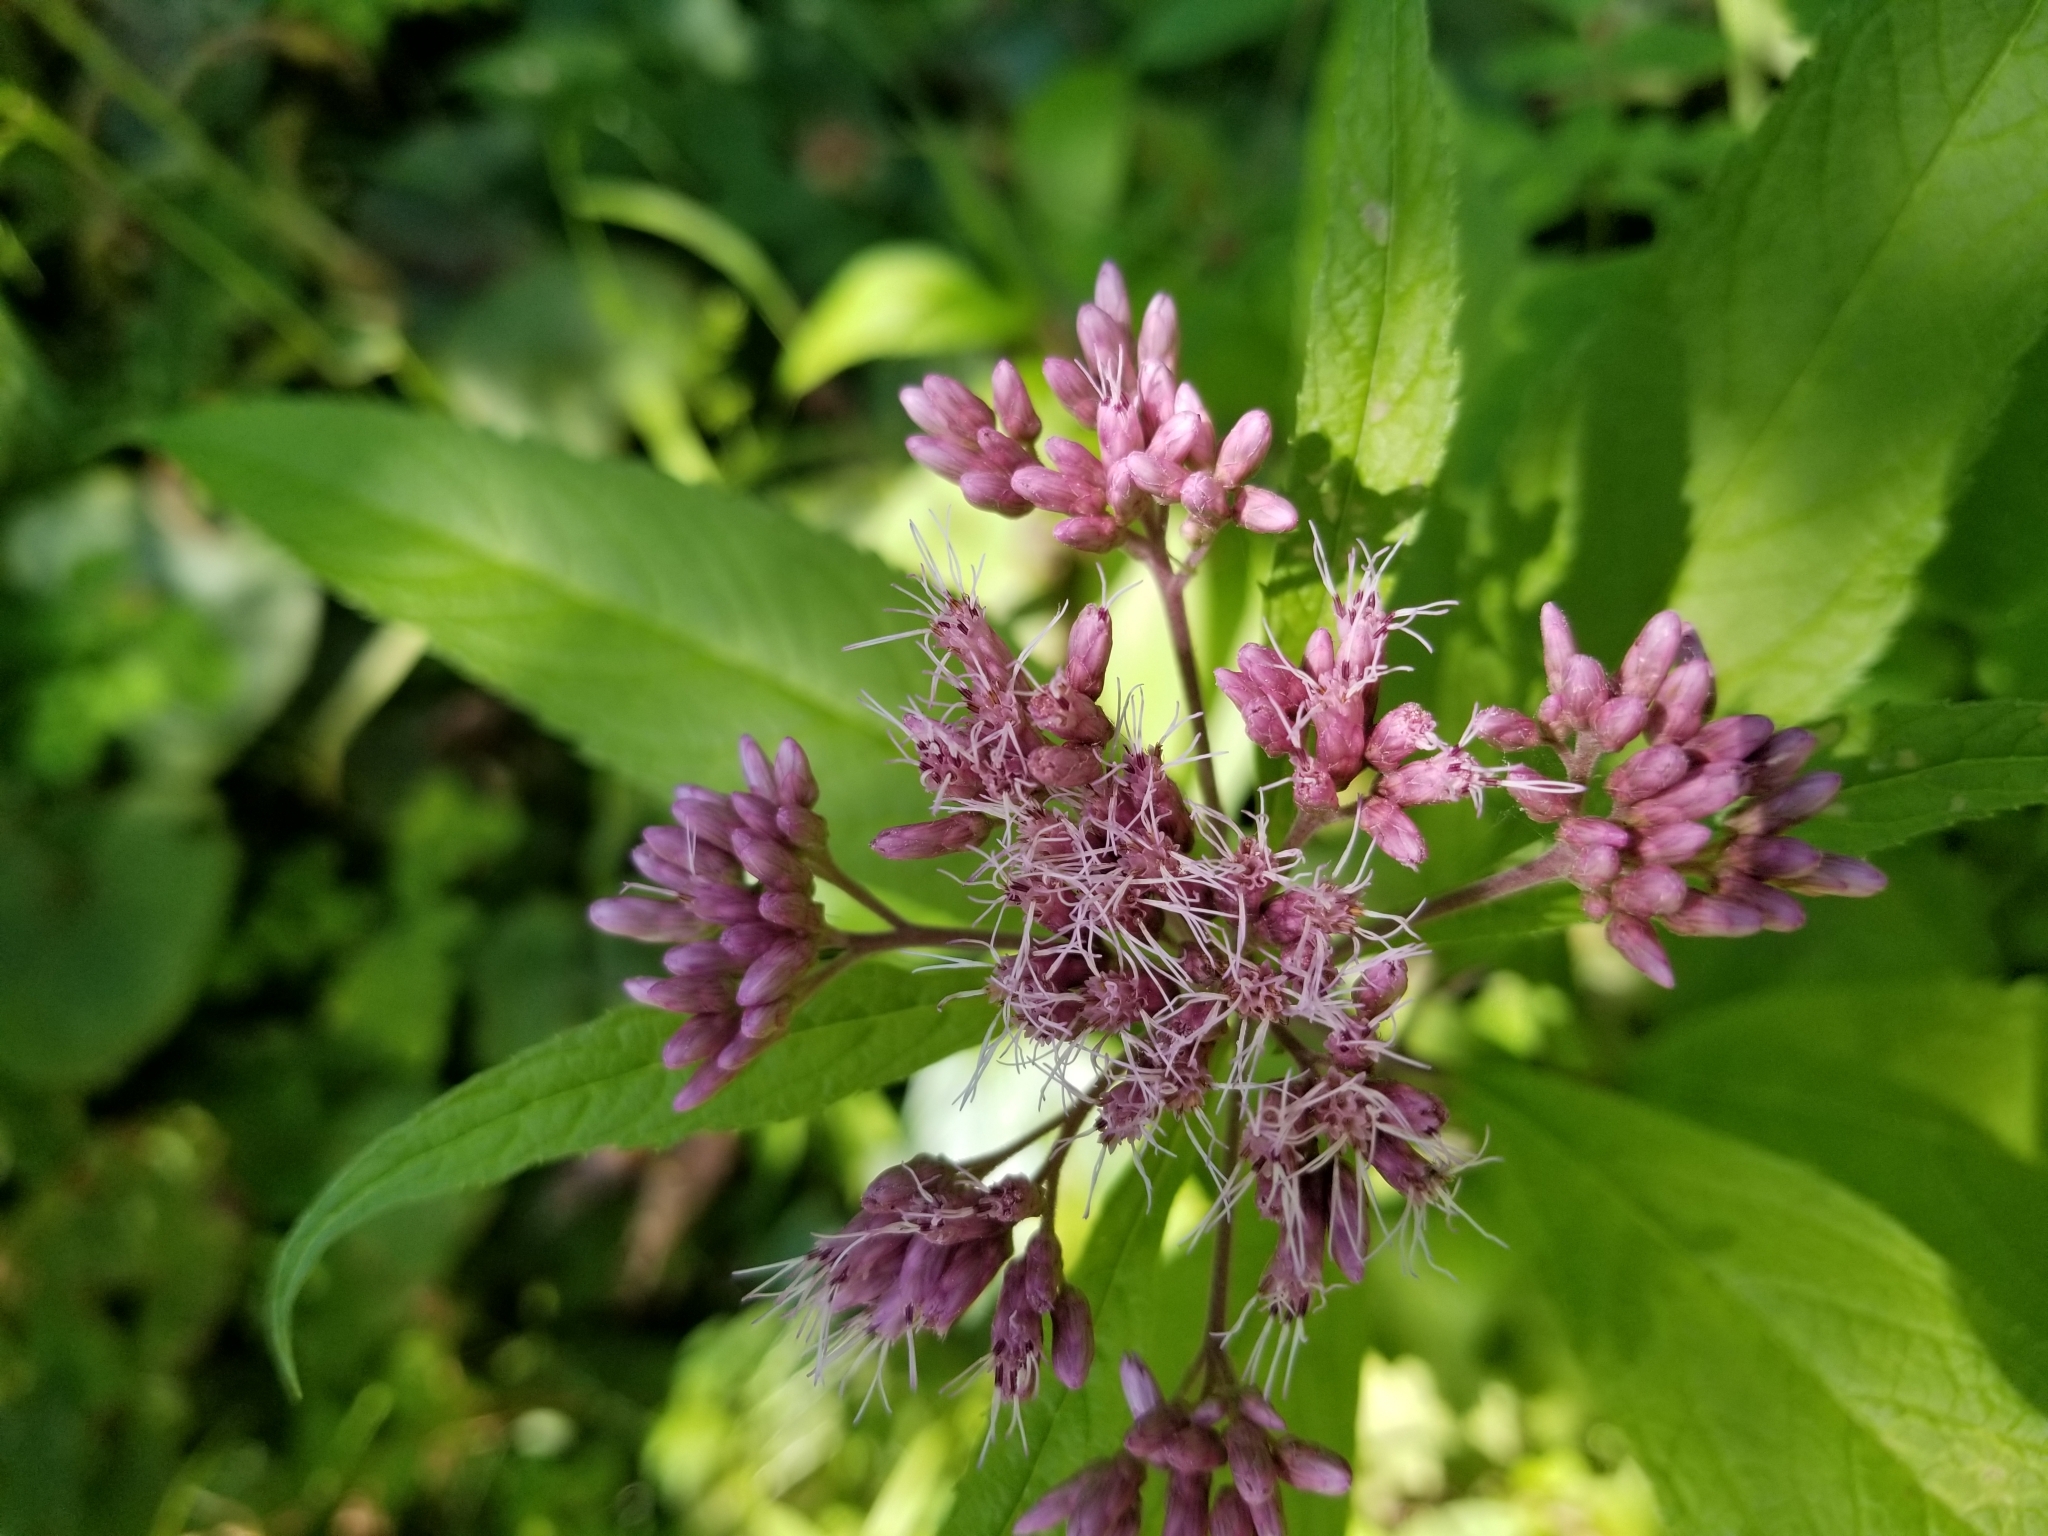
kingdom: Plantae
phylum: Tracheophyta
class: Magnoliopsida
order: Asterales
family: Asteraceae
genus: Eutrochium
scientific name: Eutrochium maculatum
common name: Spotted joe pye weed
